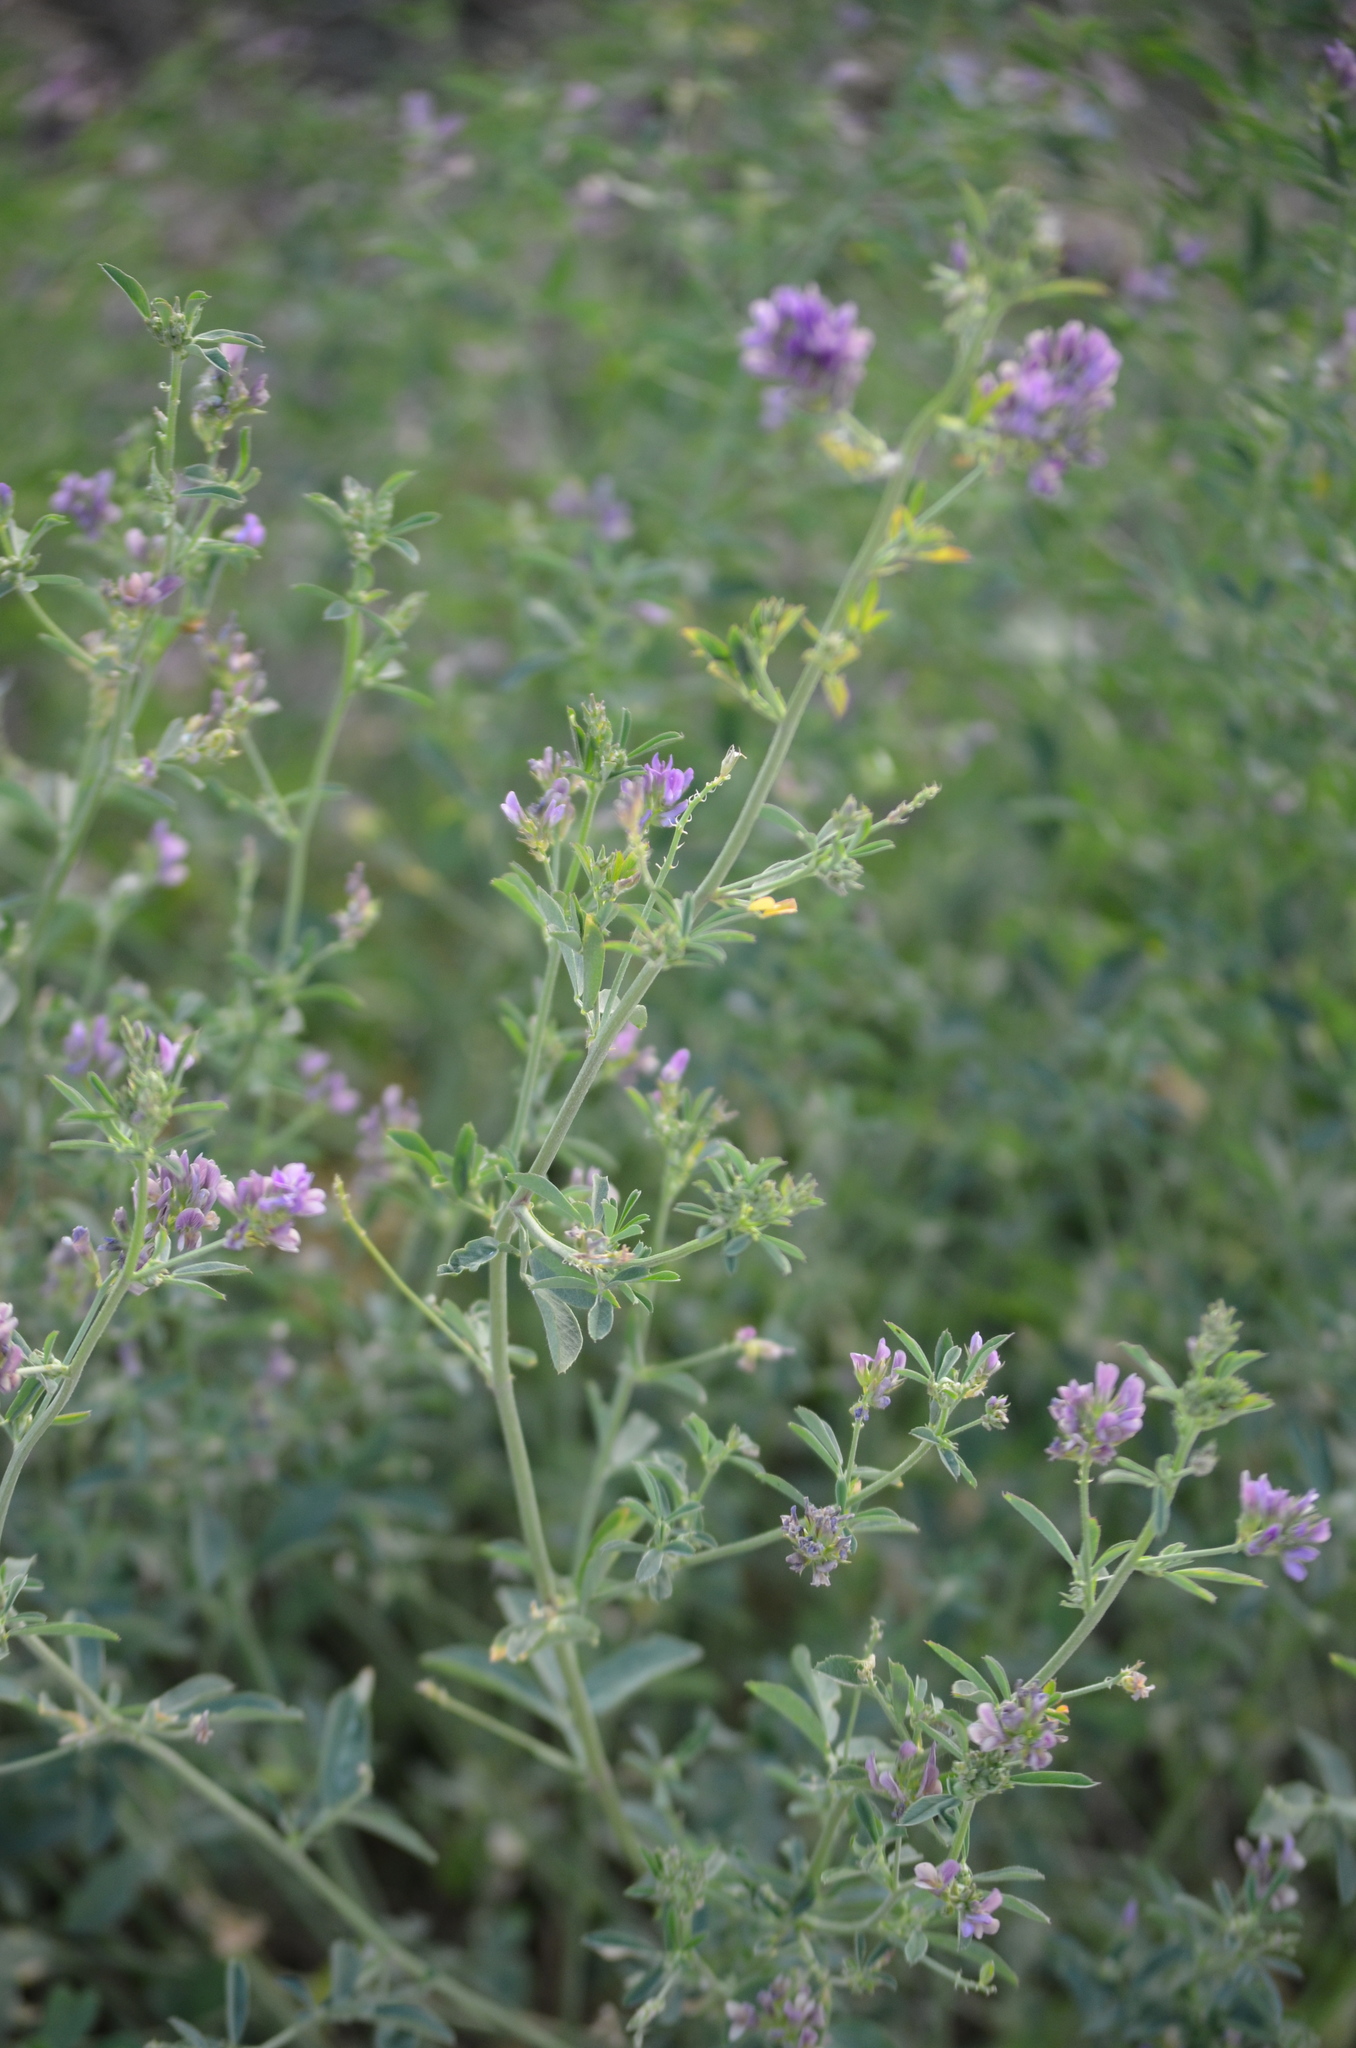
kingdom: Plantae
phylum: Tracheophyta
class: Magnoliopsida
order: Fabales
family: Fabaceae
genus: Medicago
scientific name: Medicago sativa
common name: Alfalfa
